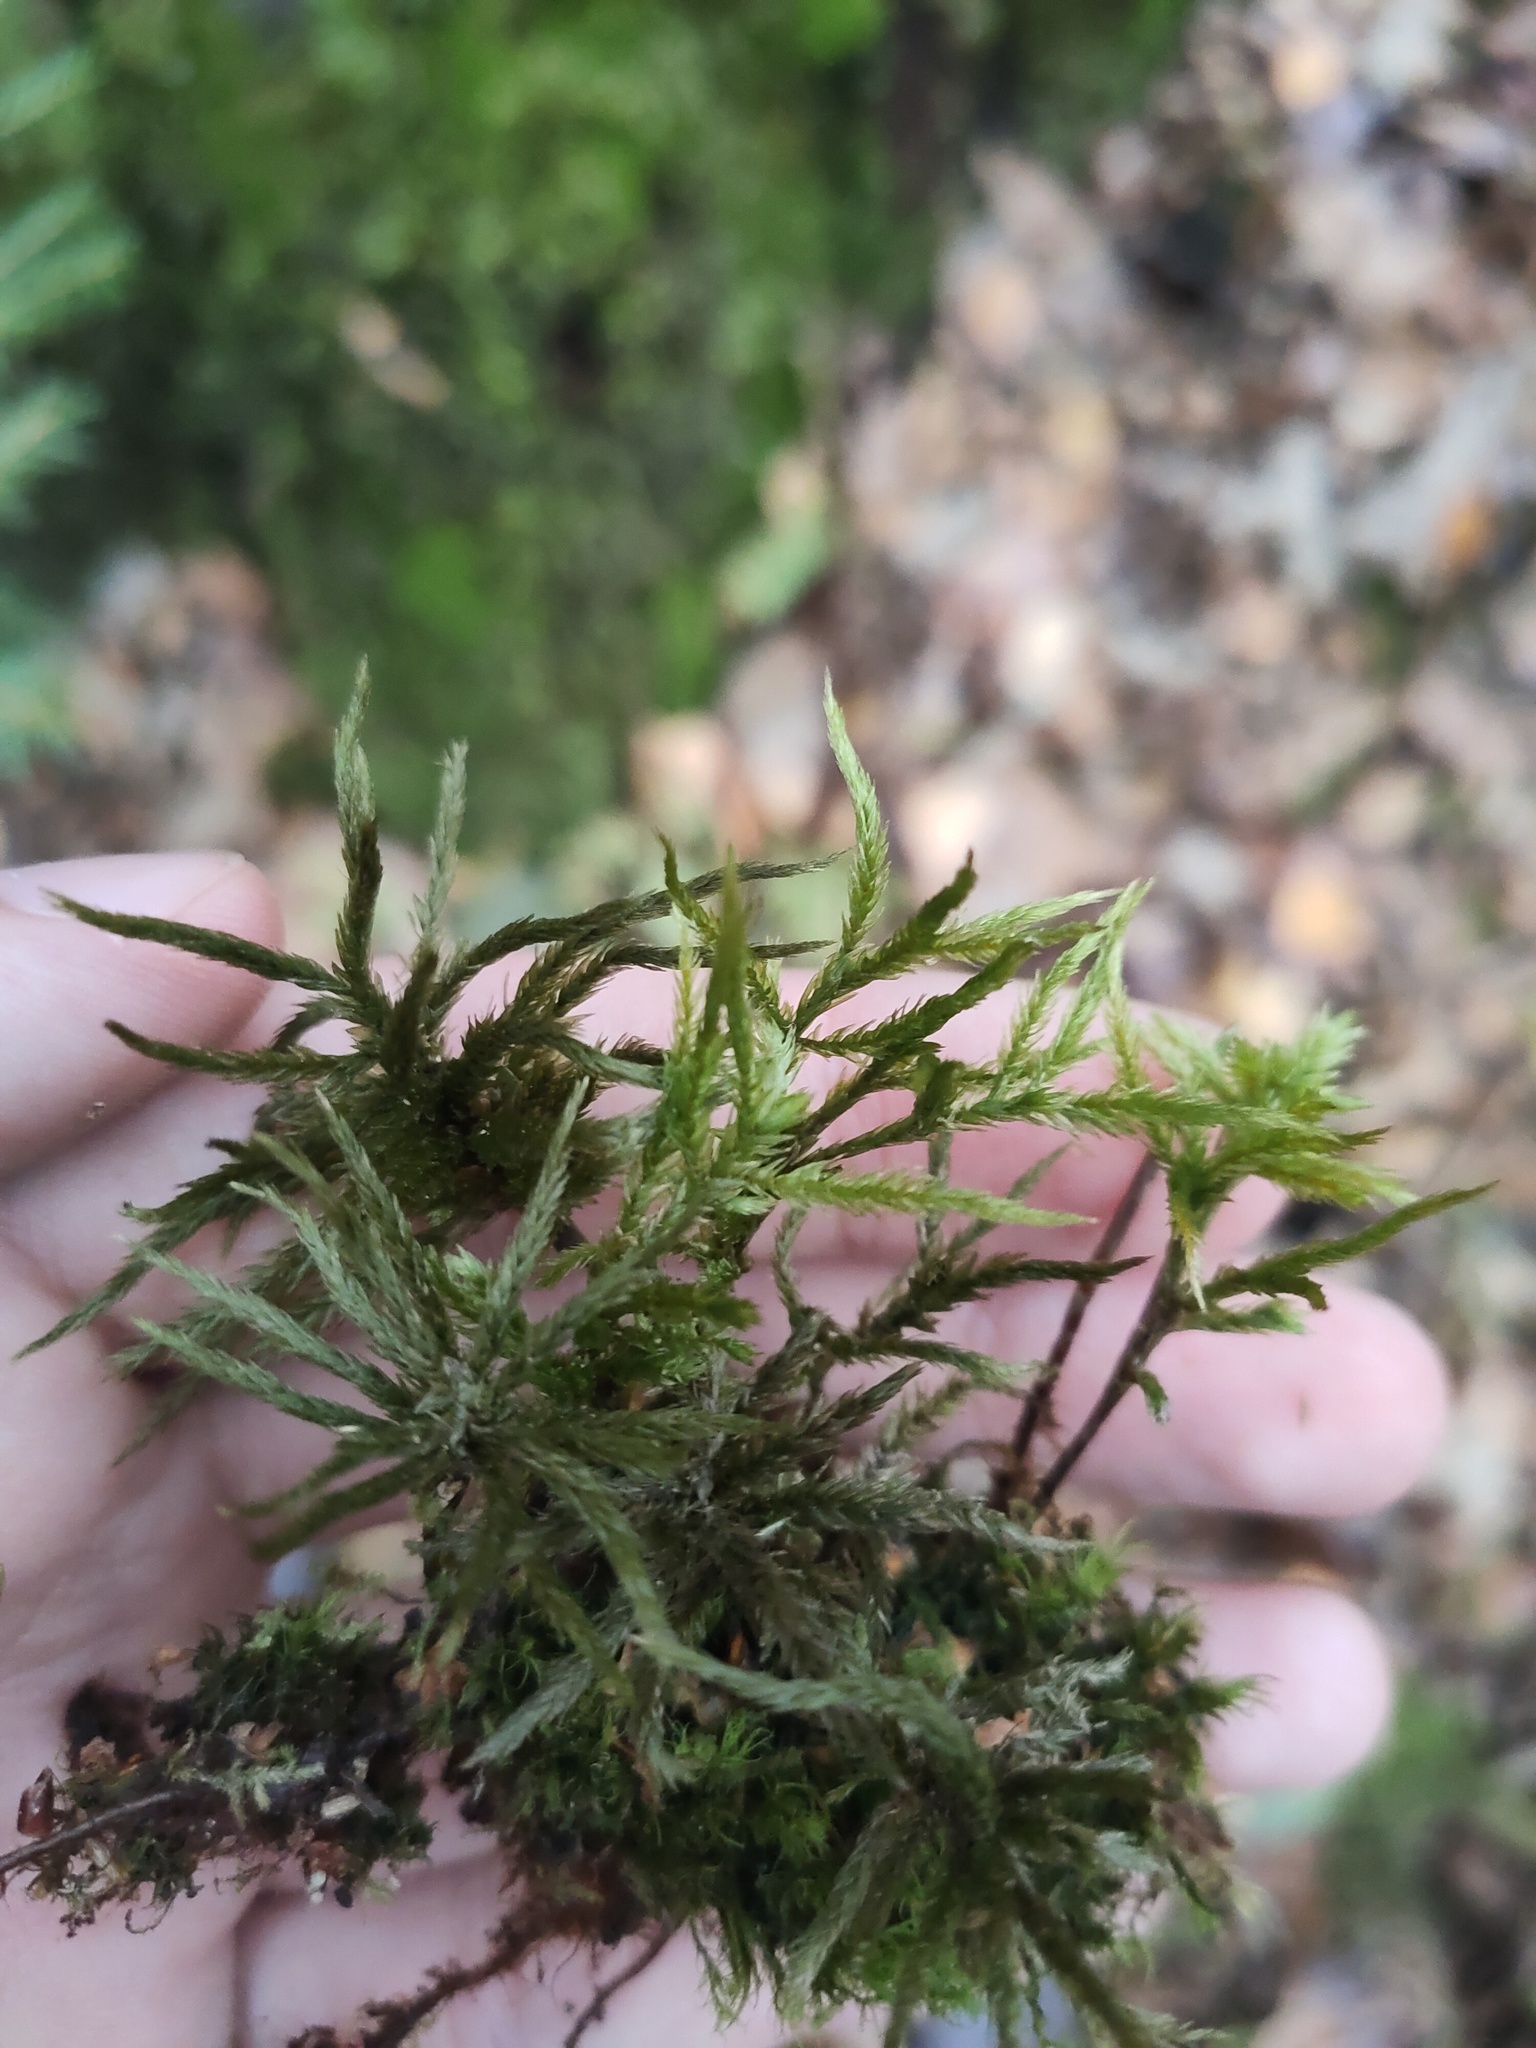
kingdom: Plantae
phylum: Bryophyta
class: Bryopsida
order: Hypnales
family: Climaciaceae
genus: Climacium
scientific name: Climacium dendroides
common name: Northern tree moss
